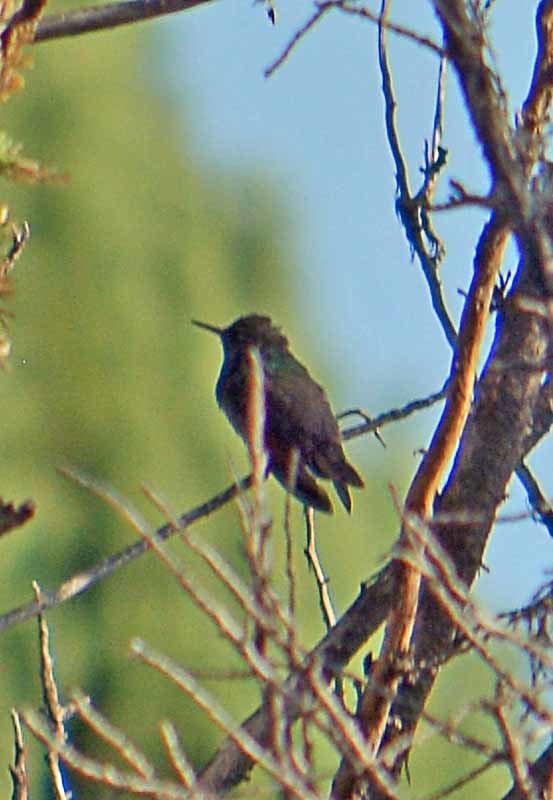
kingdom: Animalia
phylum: Chordata
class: Aves
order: Apodiformes
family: Trochilidae
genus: Saucerottia
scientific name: Saucerottia beryllina
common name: Berylline hummingbird
